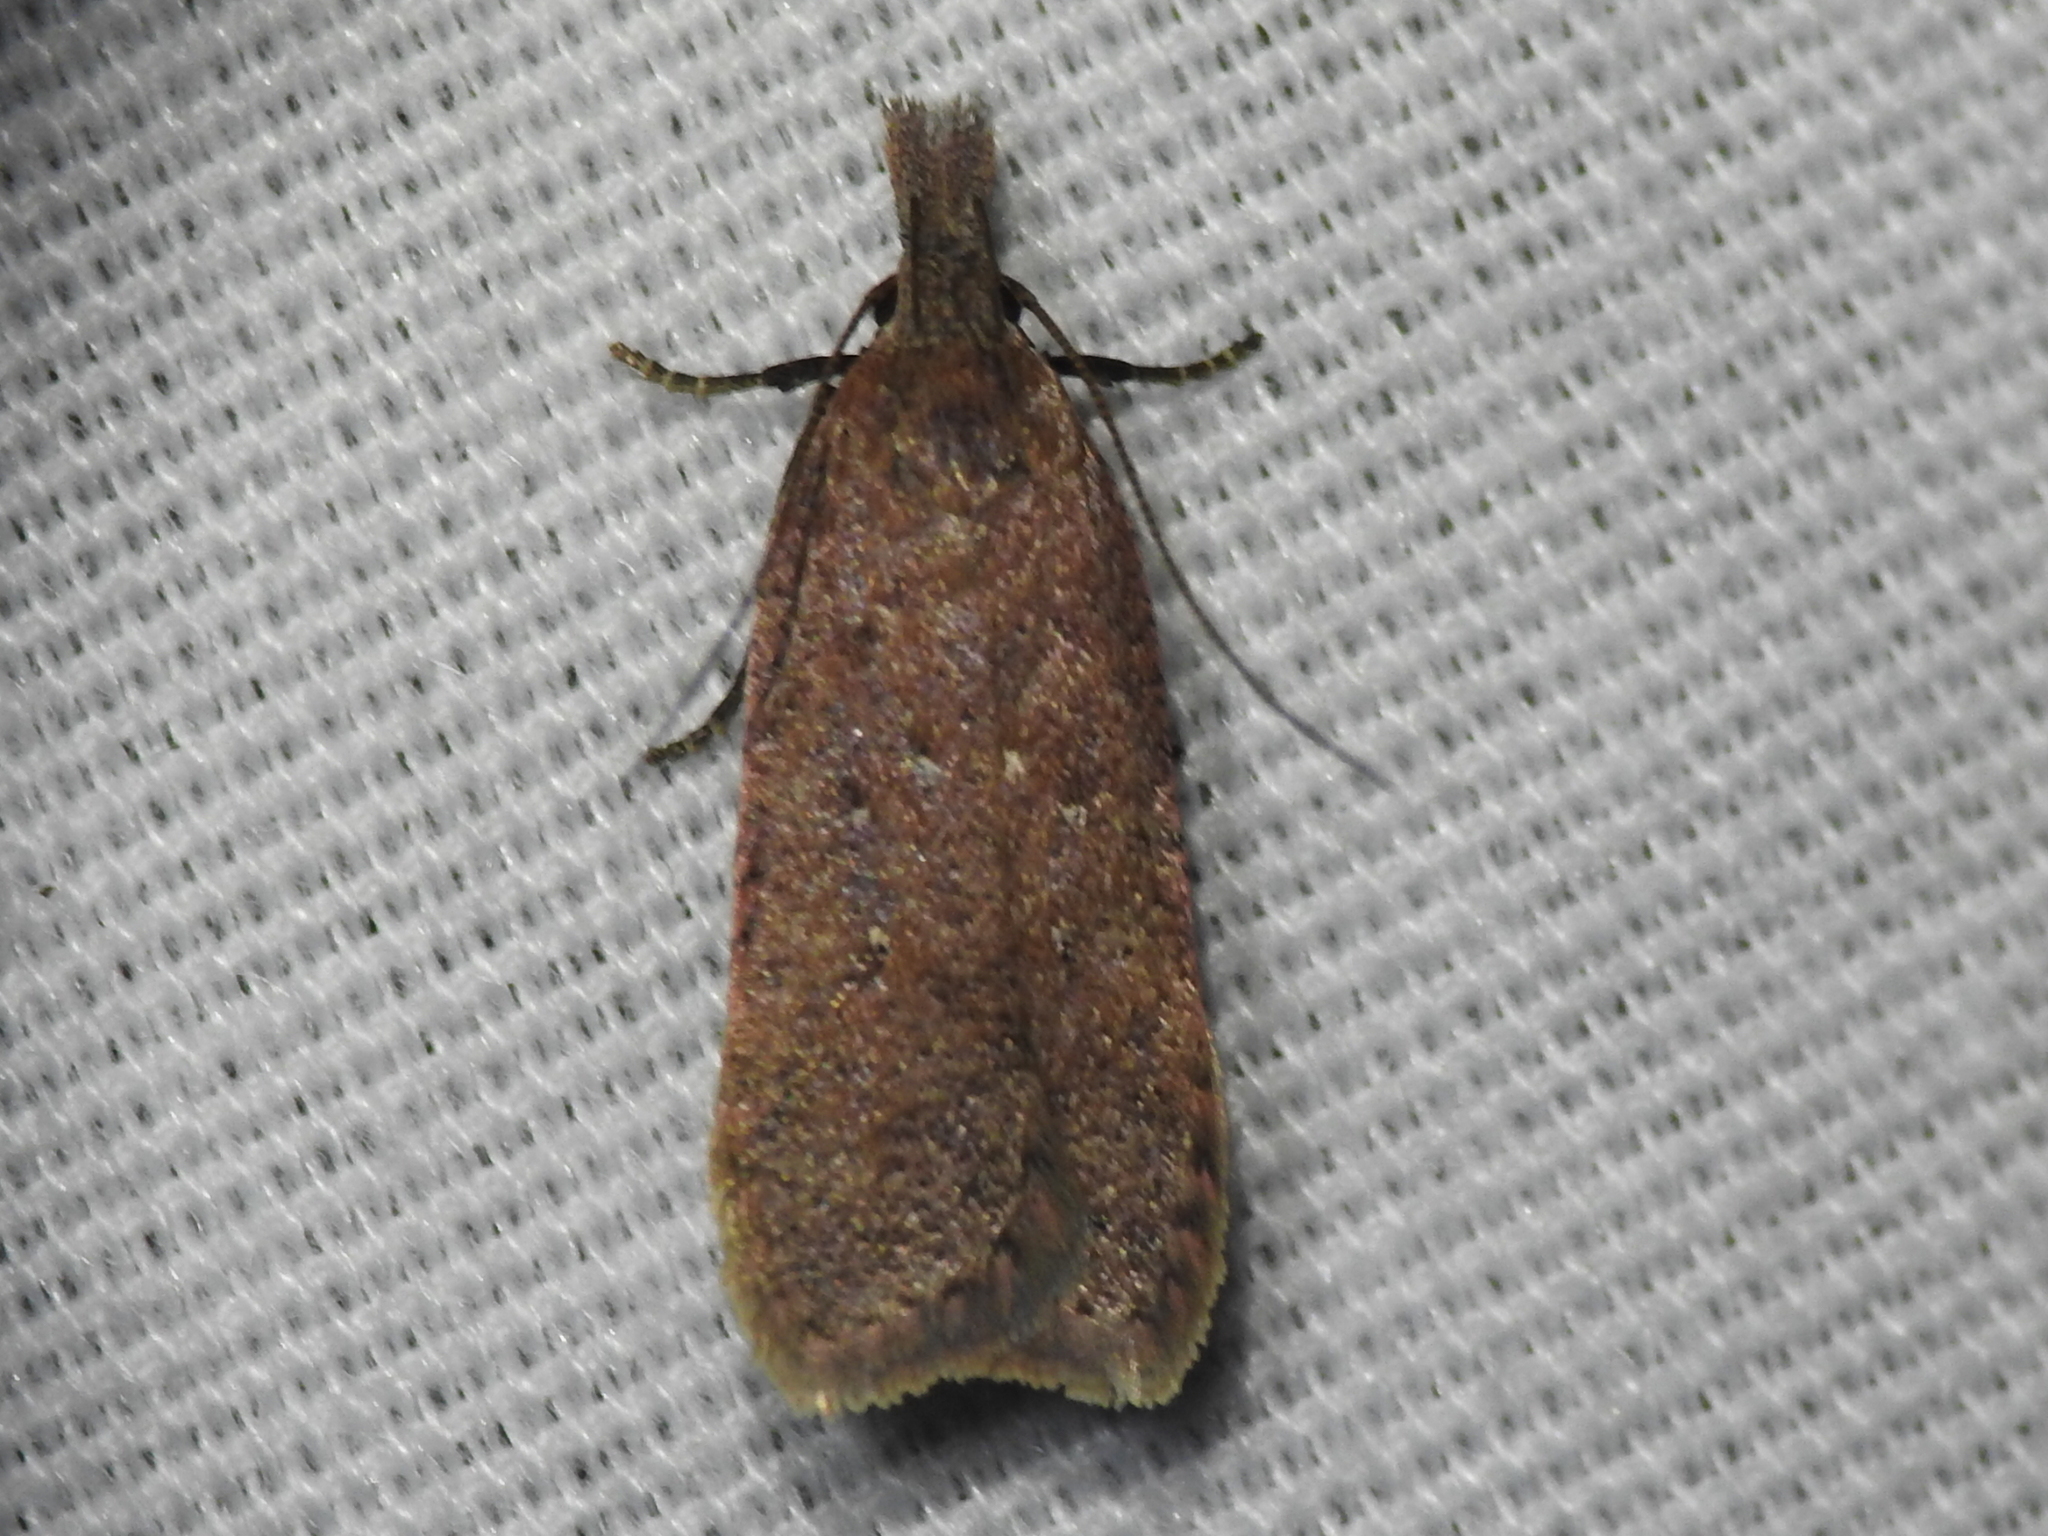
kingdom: Animalia
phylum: Arthropoda
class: Insecta
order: Lepidoptera
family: Gelechiidae
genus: Dichomeris
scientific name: Dichomeris ventrellus
